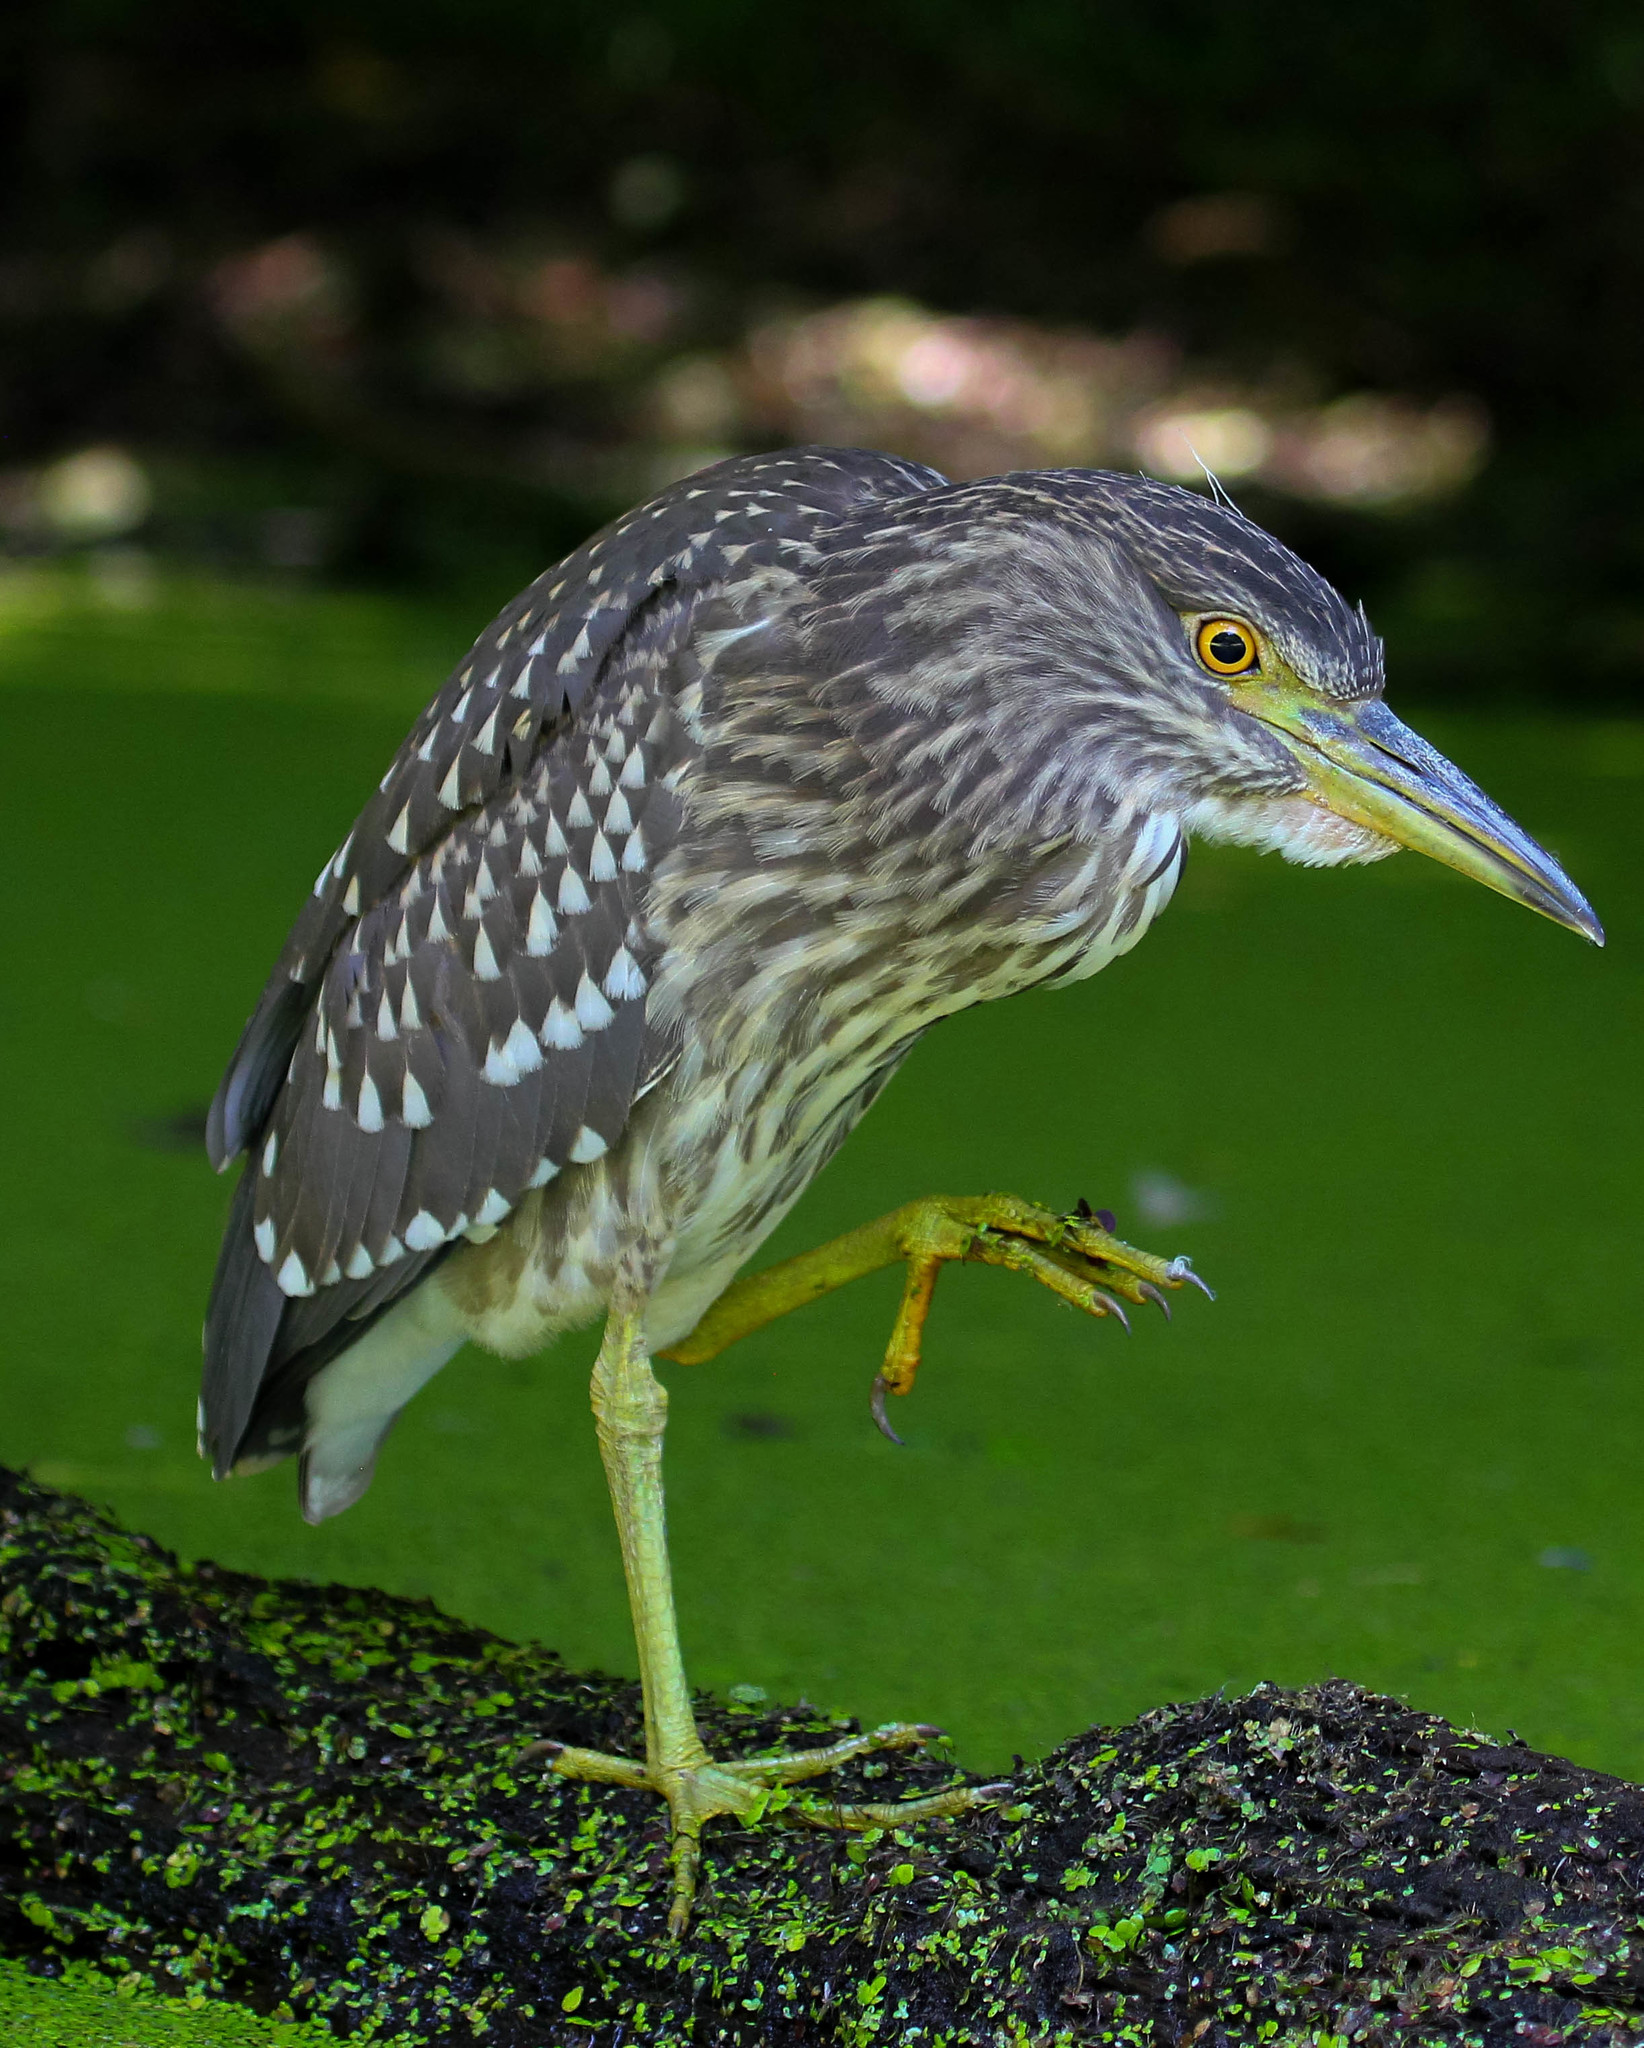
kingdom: Animalia
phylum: Chordata
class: Aves
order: Pelecaniformes
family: Ardeidae
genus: Nycticorax
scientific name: Nycticorax nycticorax
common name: Black-crowned night heron
